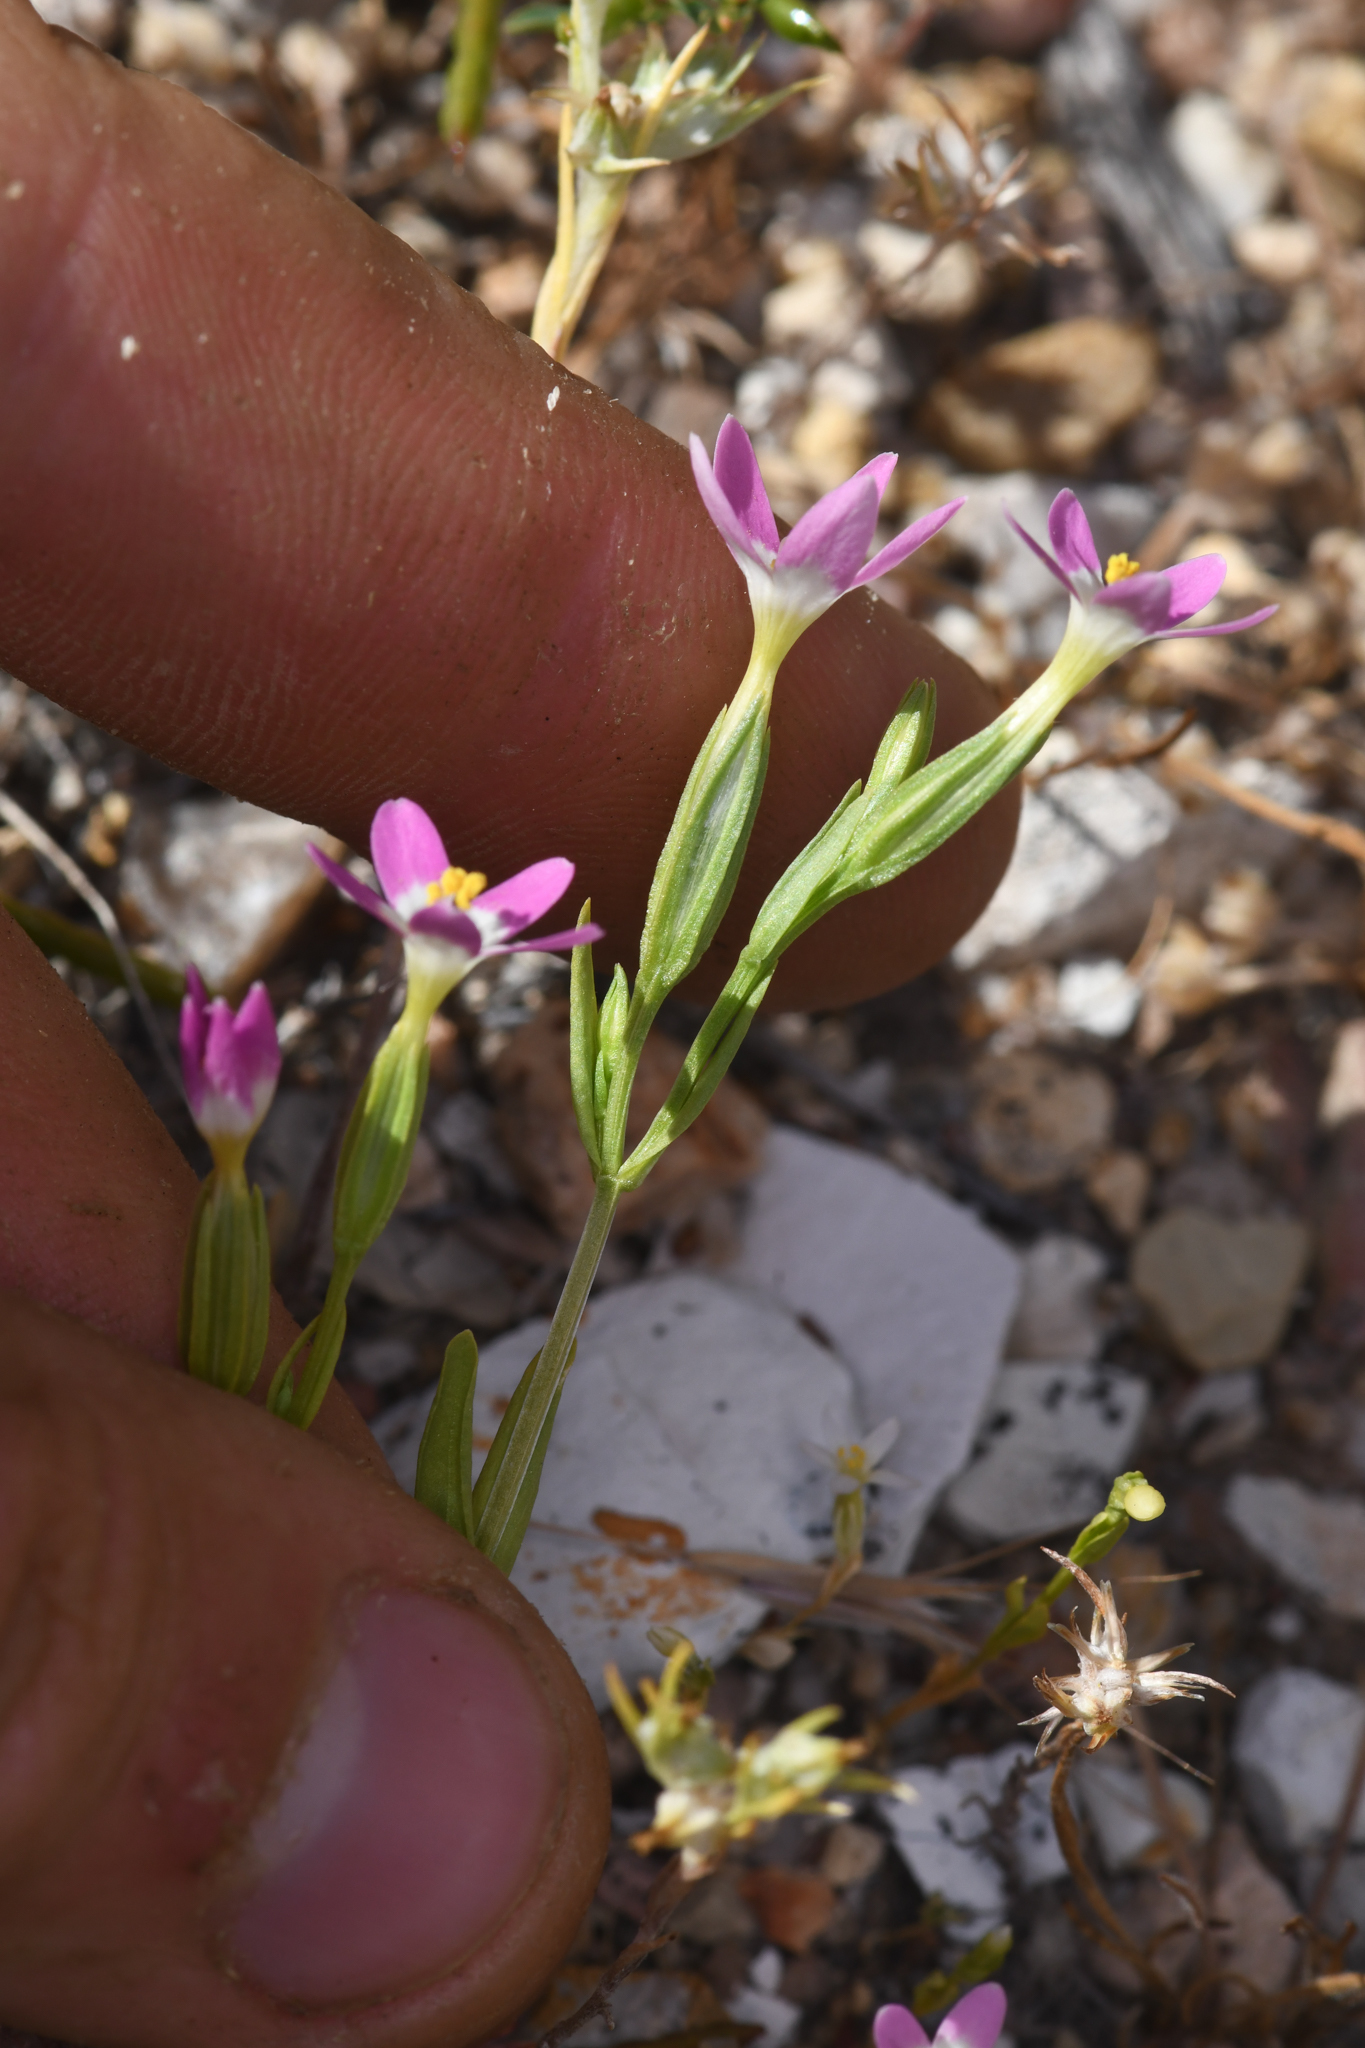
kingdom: Plantae
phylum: Tracheophyta
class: Magnoliopsida
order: Gentianales
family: Gentianaceae
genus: Zeltnera
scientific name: Zeltnera davyi
